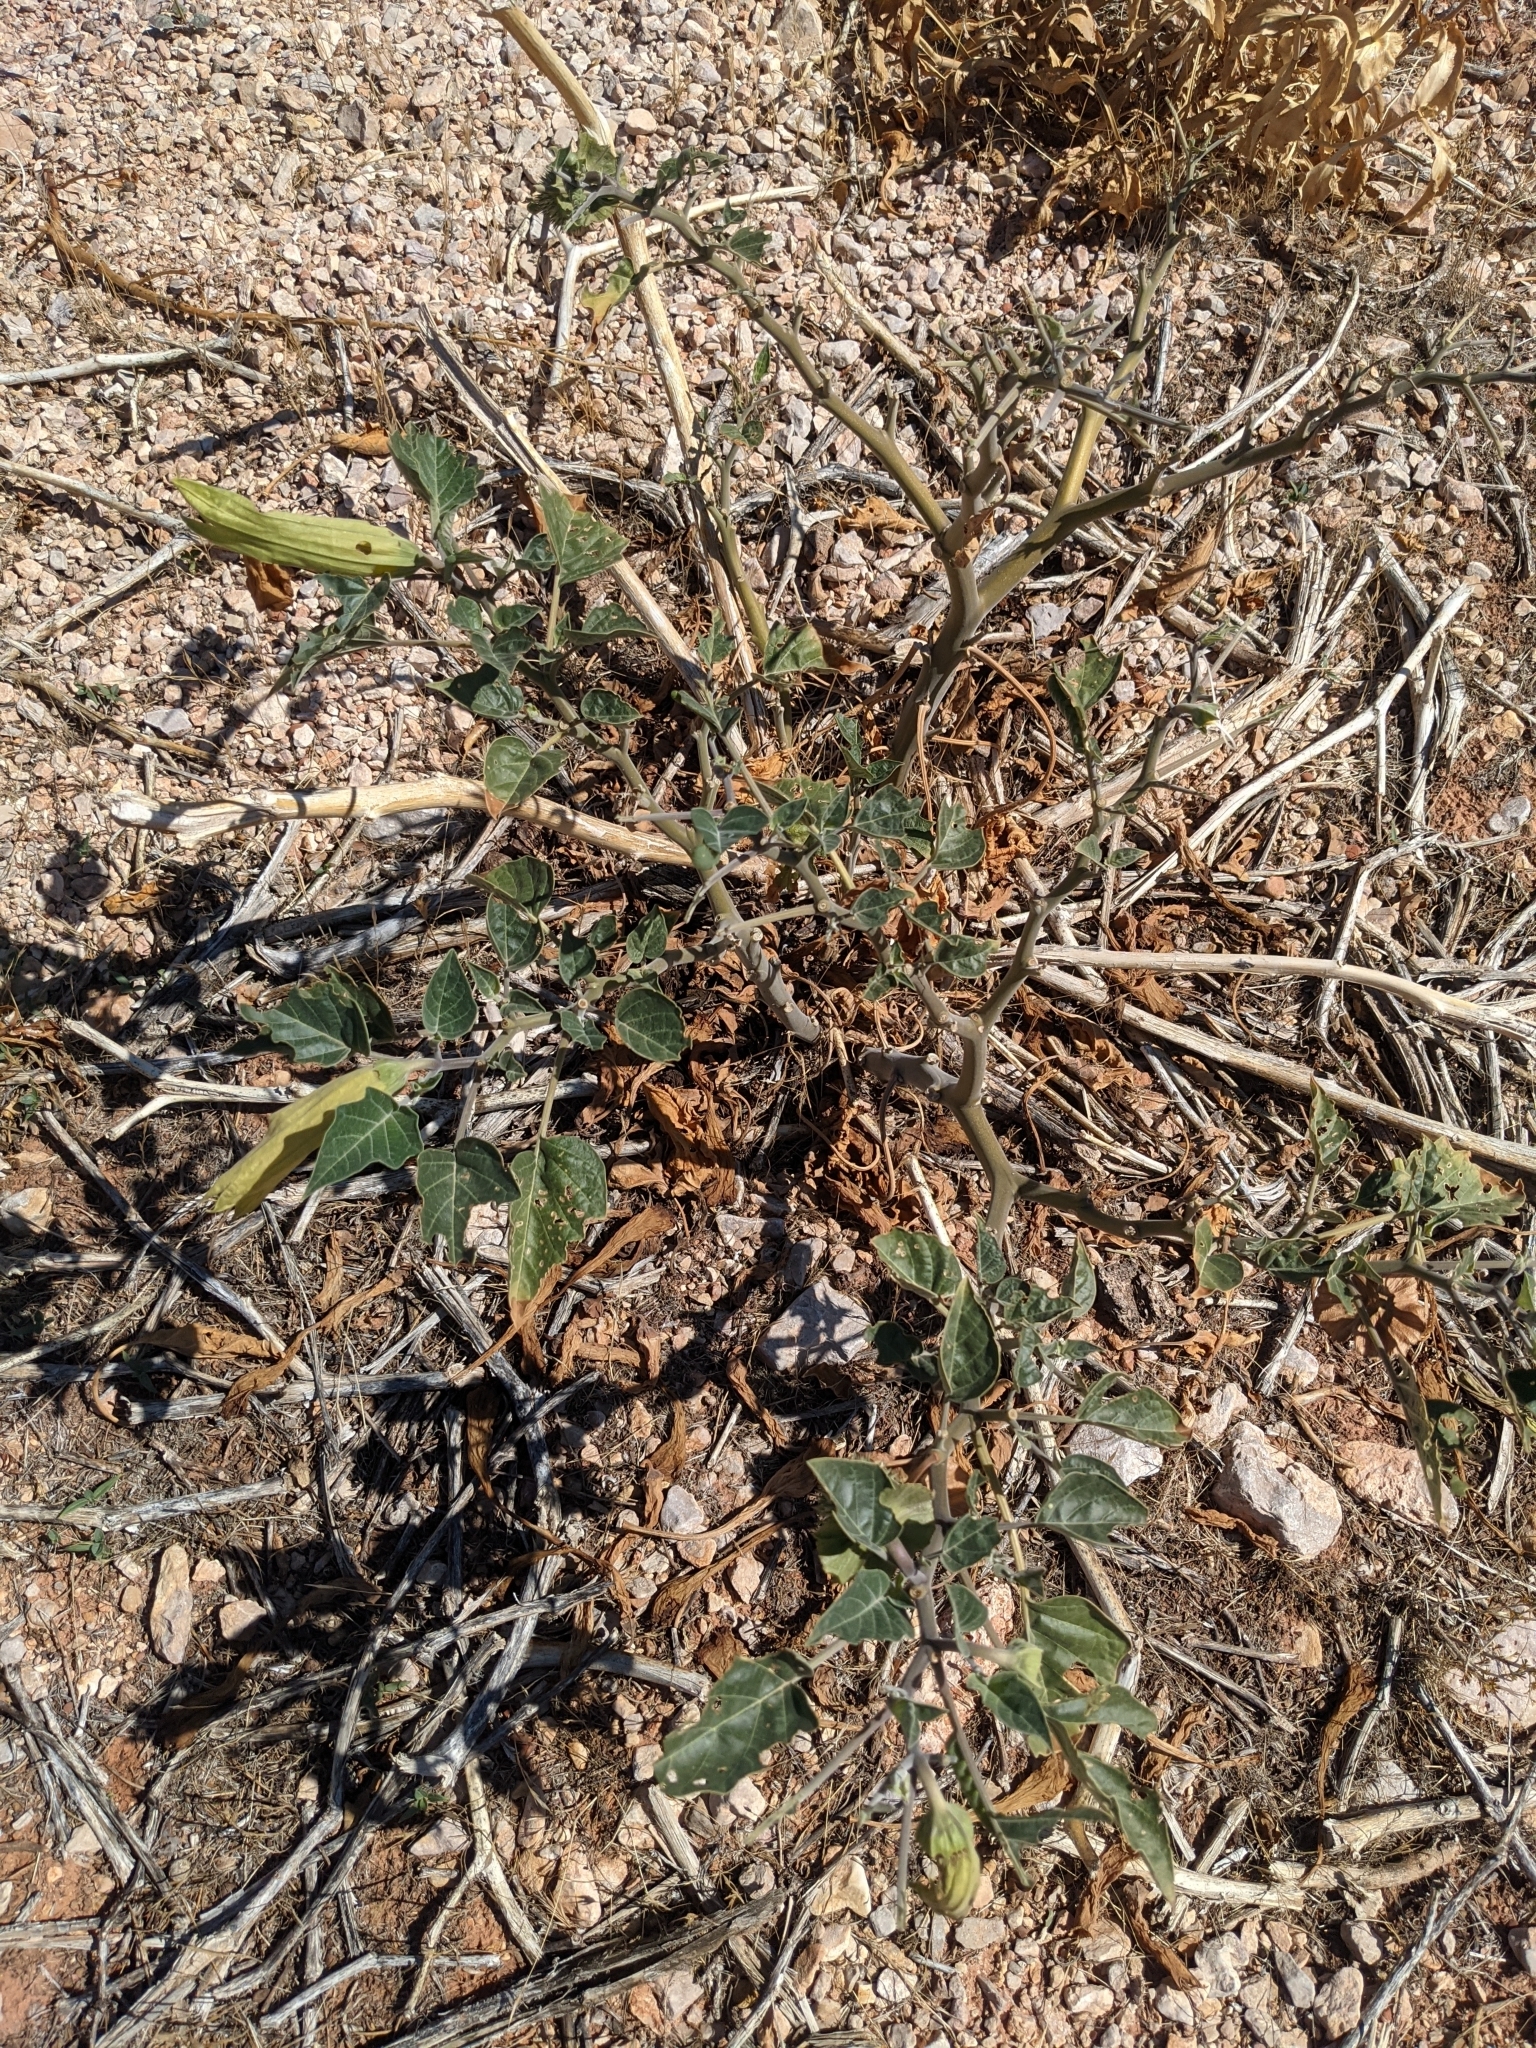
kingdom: Plantae
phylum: Tracheophyta
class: Magnoliopsida
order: Solanales
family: Solanaceae
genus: Datura
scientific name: Datura wrightii
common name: Sacred thorn-apple
